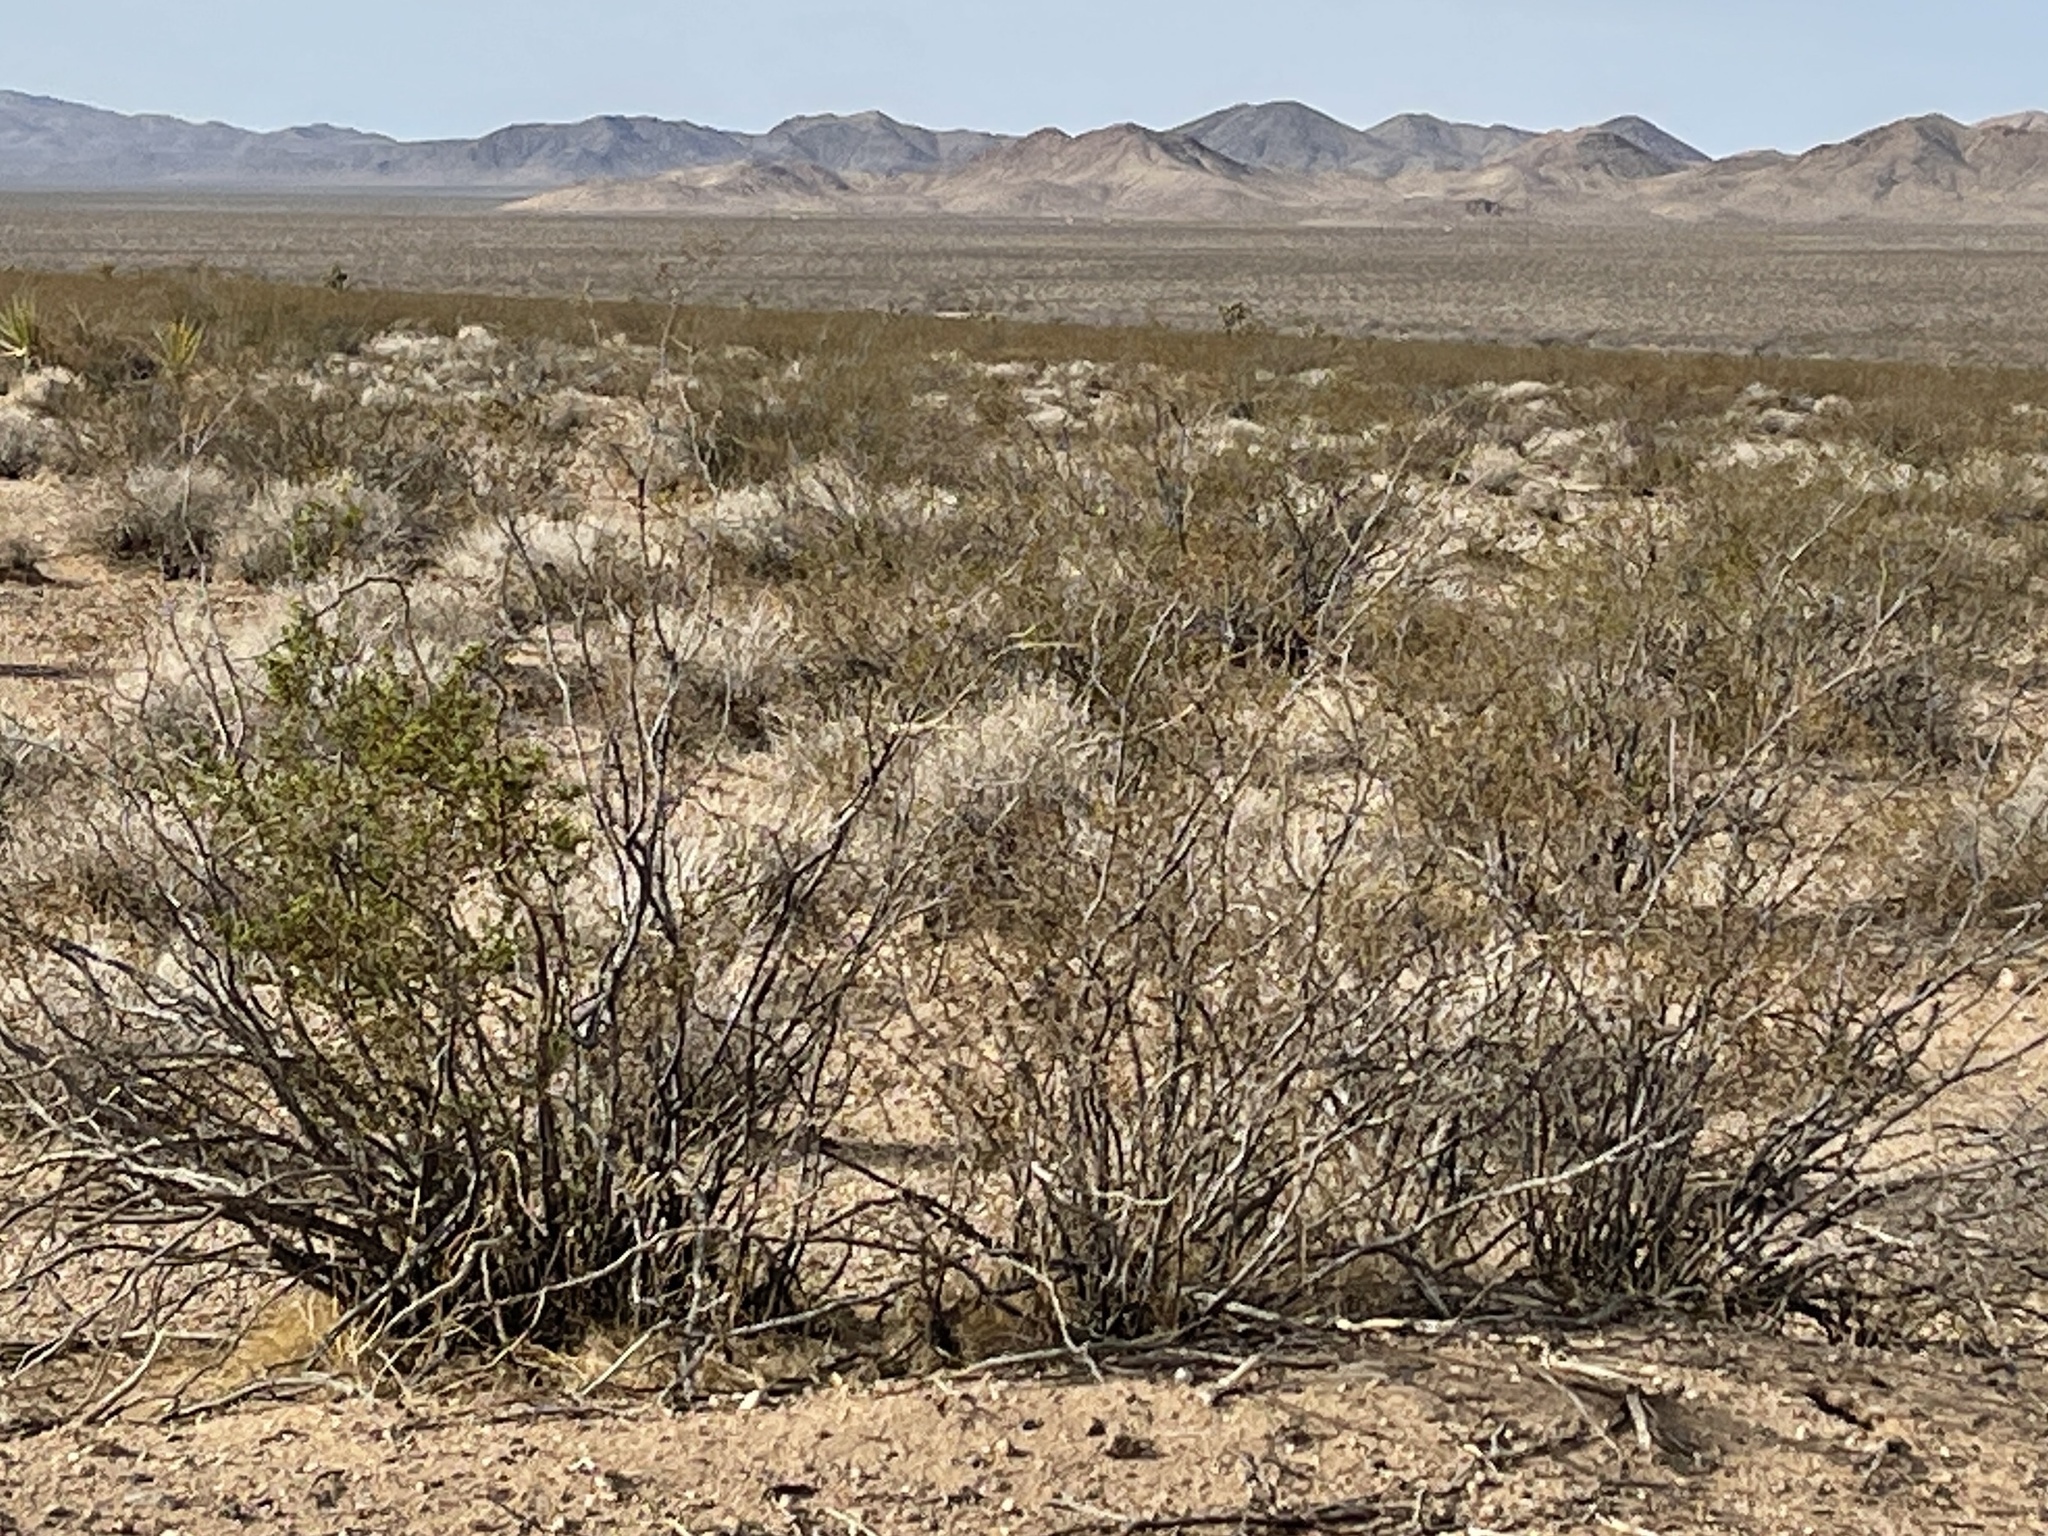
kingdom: Plantae
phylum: Tracheophyta
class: Magnoliopsida
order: Zygophyllales
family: Zygophyllaceae
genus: Larrea
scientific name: Larrea tridentata
